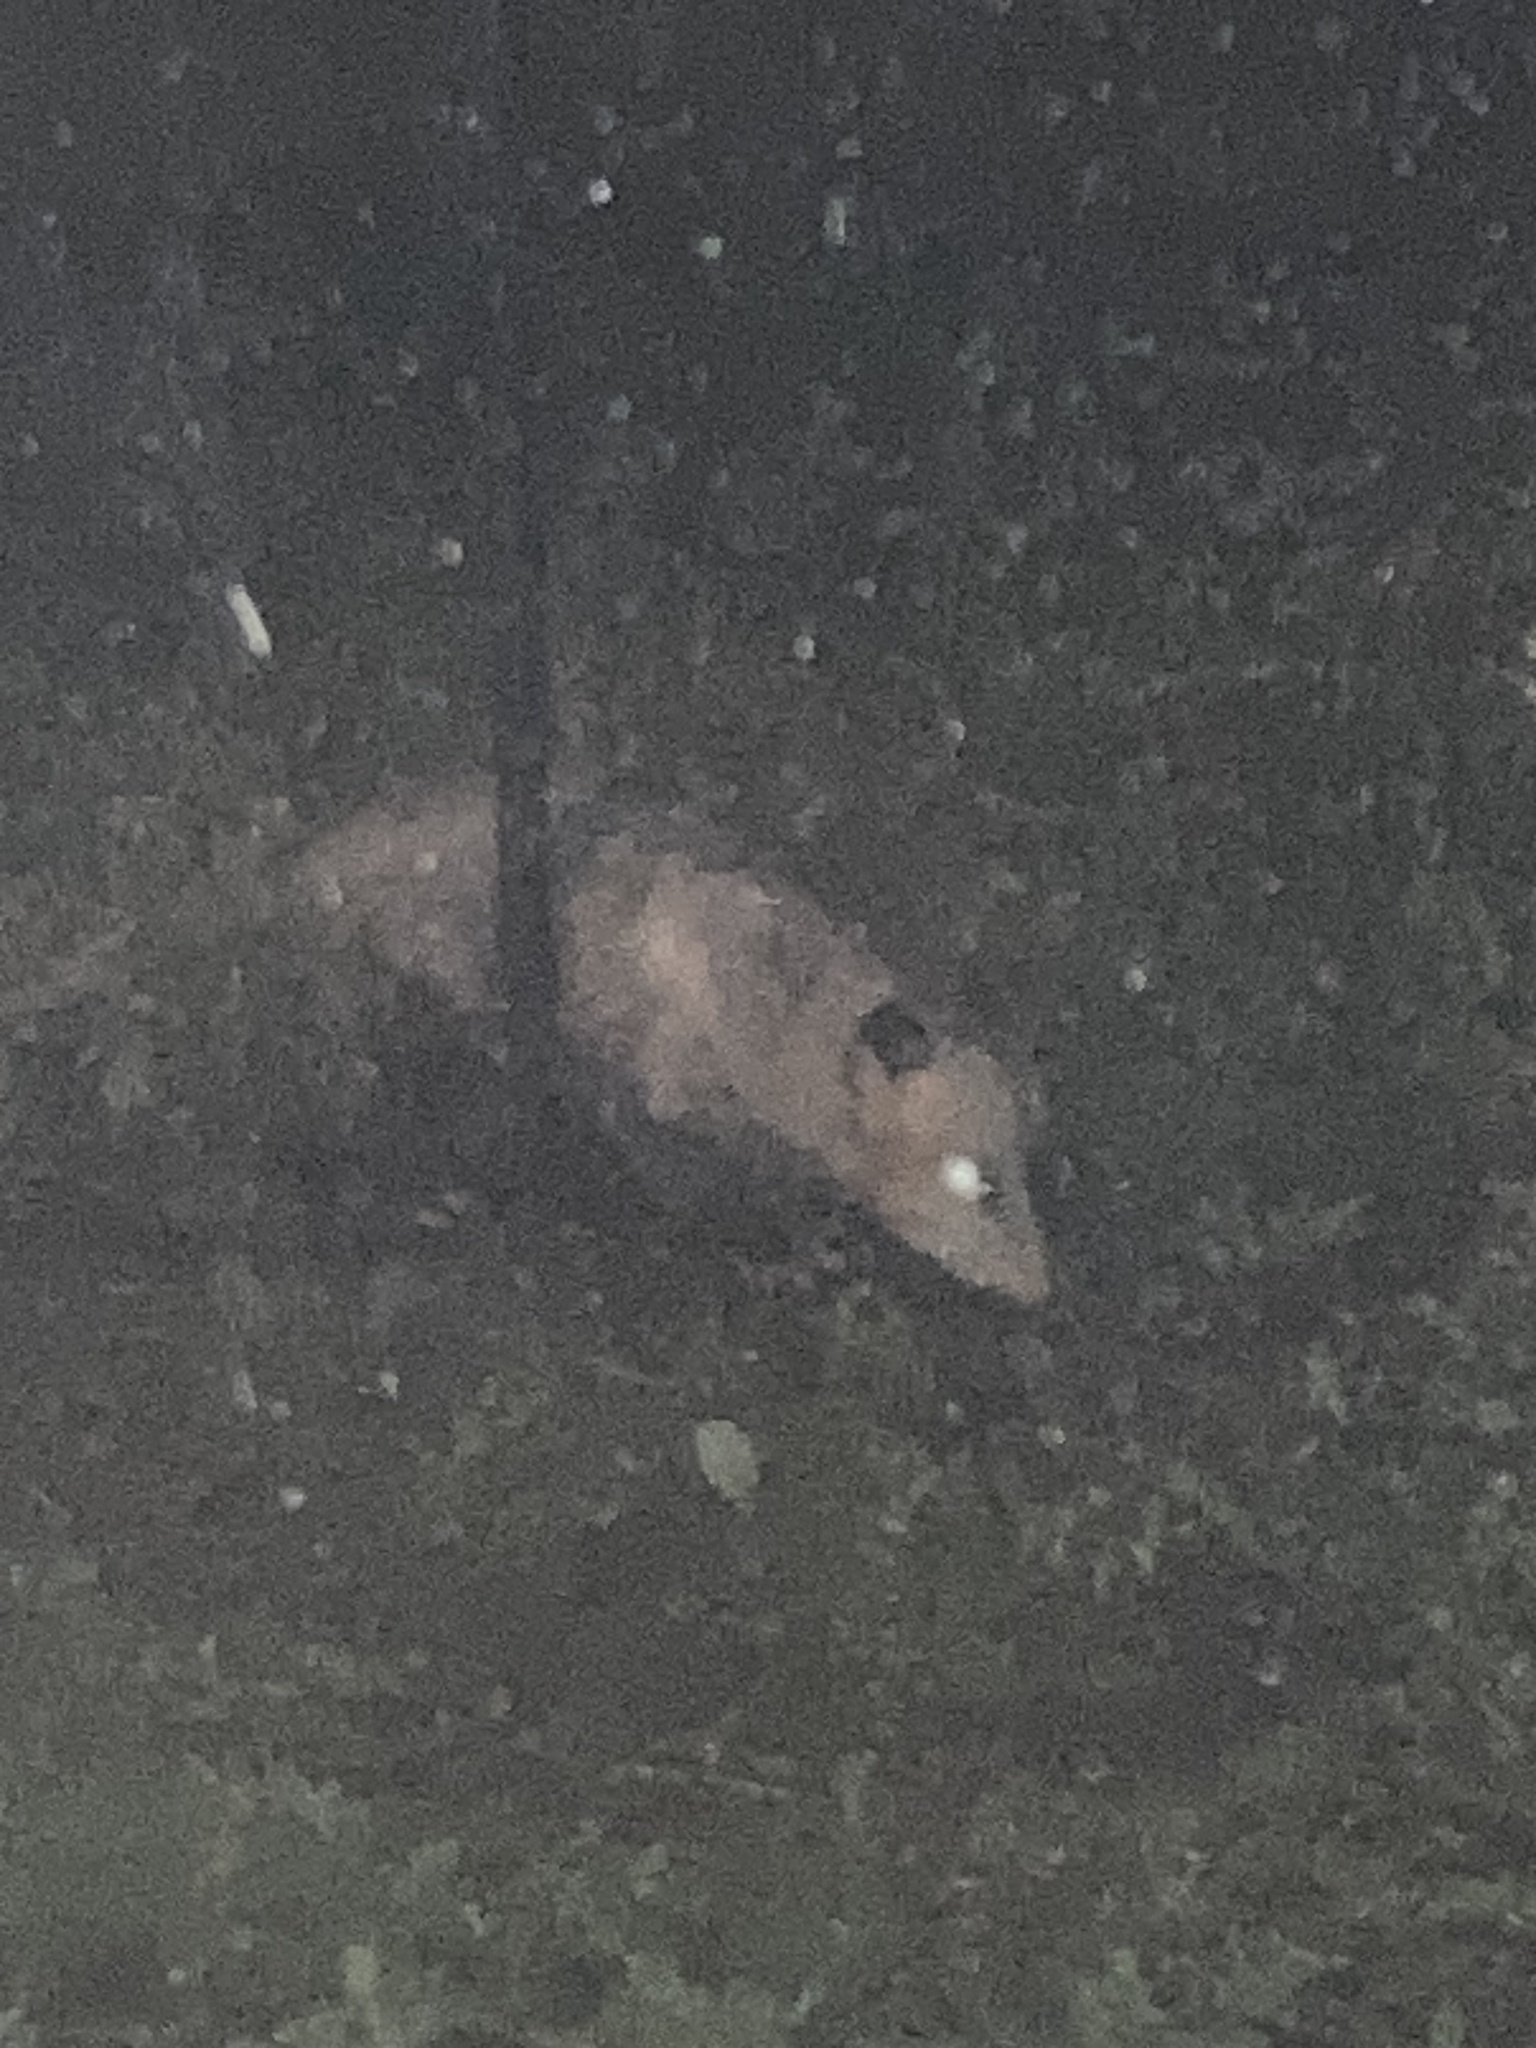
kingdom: Animalia
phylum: Chordata
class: Mammalia
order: Didelphimorphia
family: Didelphidae
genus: Didelphis
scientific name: Didelphis virginiana
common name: Virginia opossum
